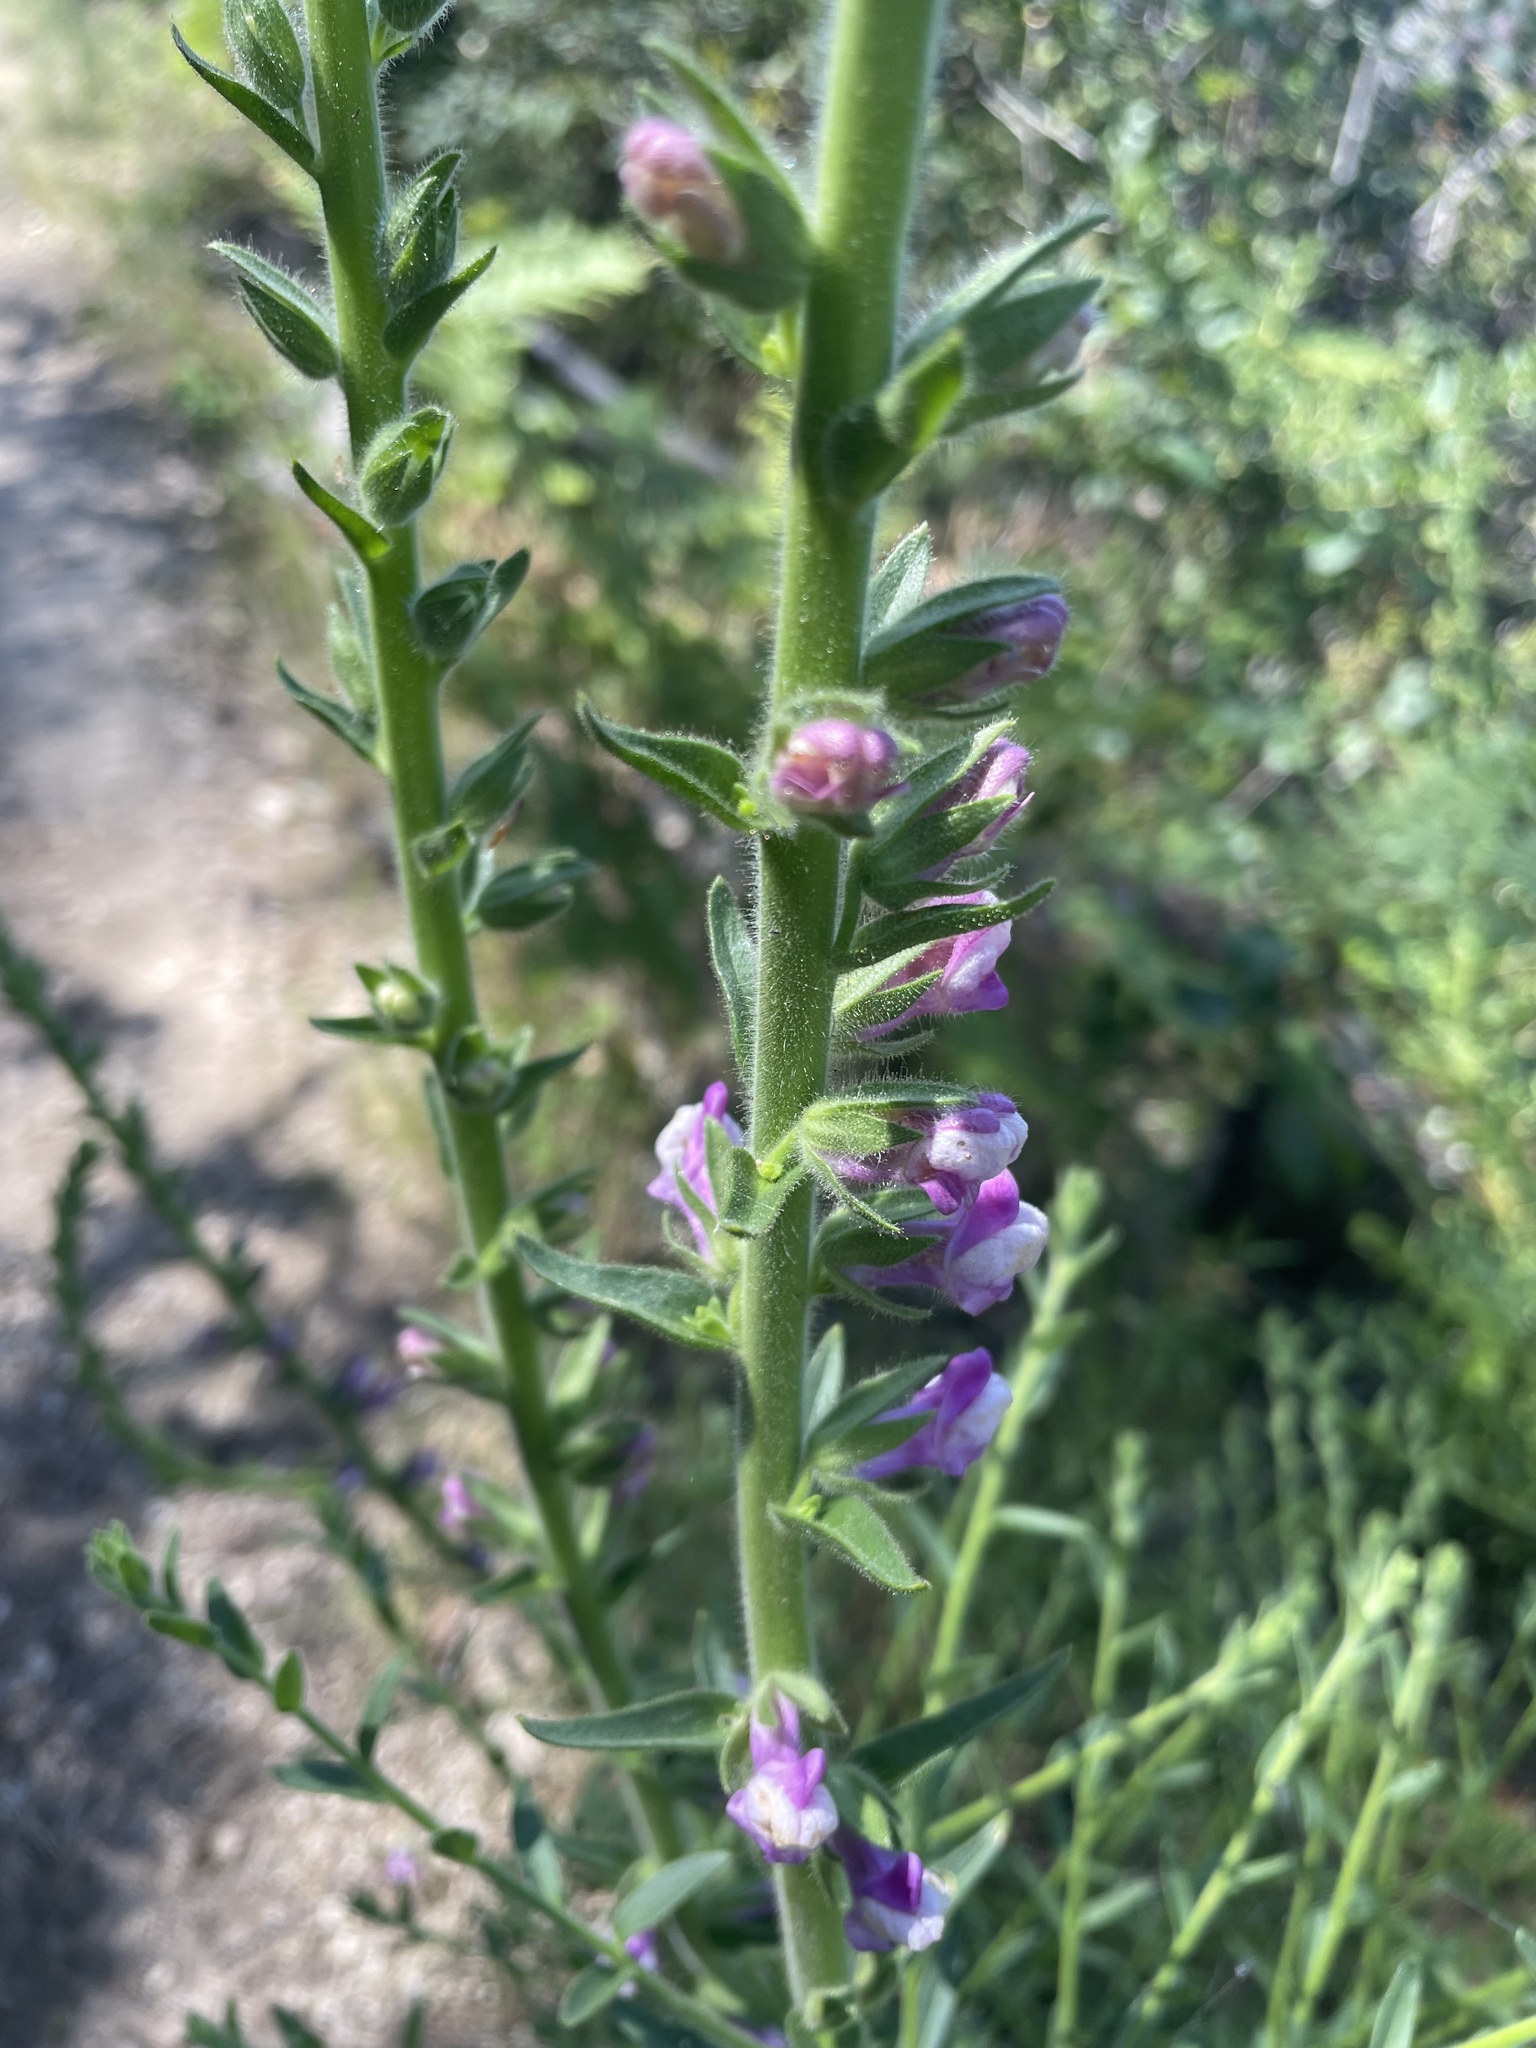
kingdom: Plantae
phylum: Tracheophyta
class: Magnoliopsida
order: Lamiales
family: Plantaginaceae
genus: Sairocarpus
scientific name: Sairocarpus multiflorus
